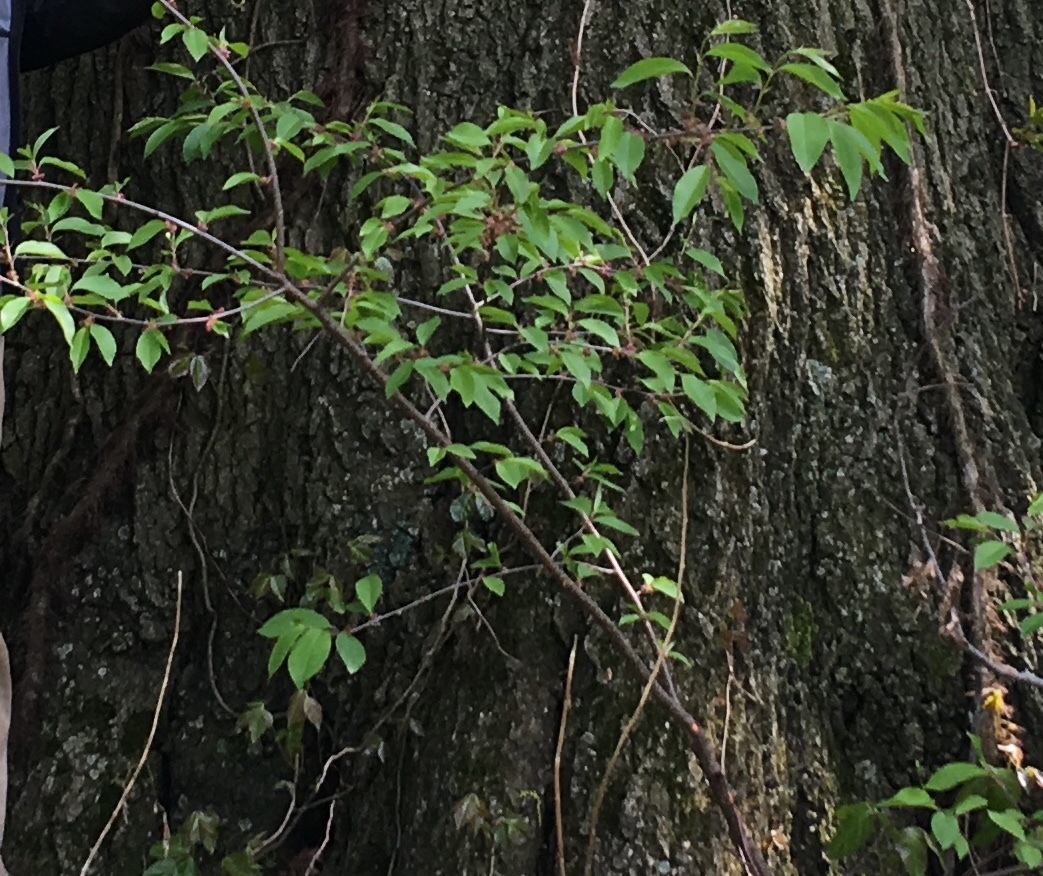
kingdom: Plantae
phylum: Tracheophyta
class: Magnoliopsida
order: Rosales
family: Rosaceae
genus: Prunus
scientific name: Prunus serotina
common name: Black cherry
